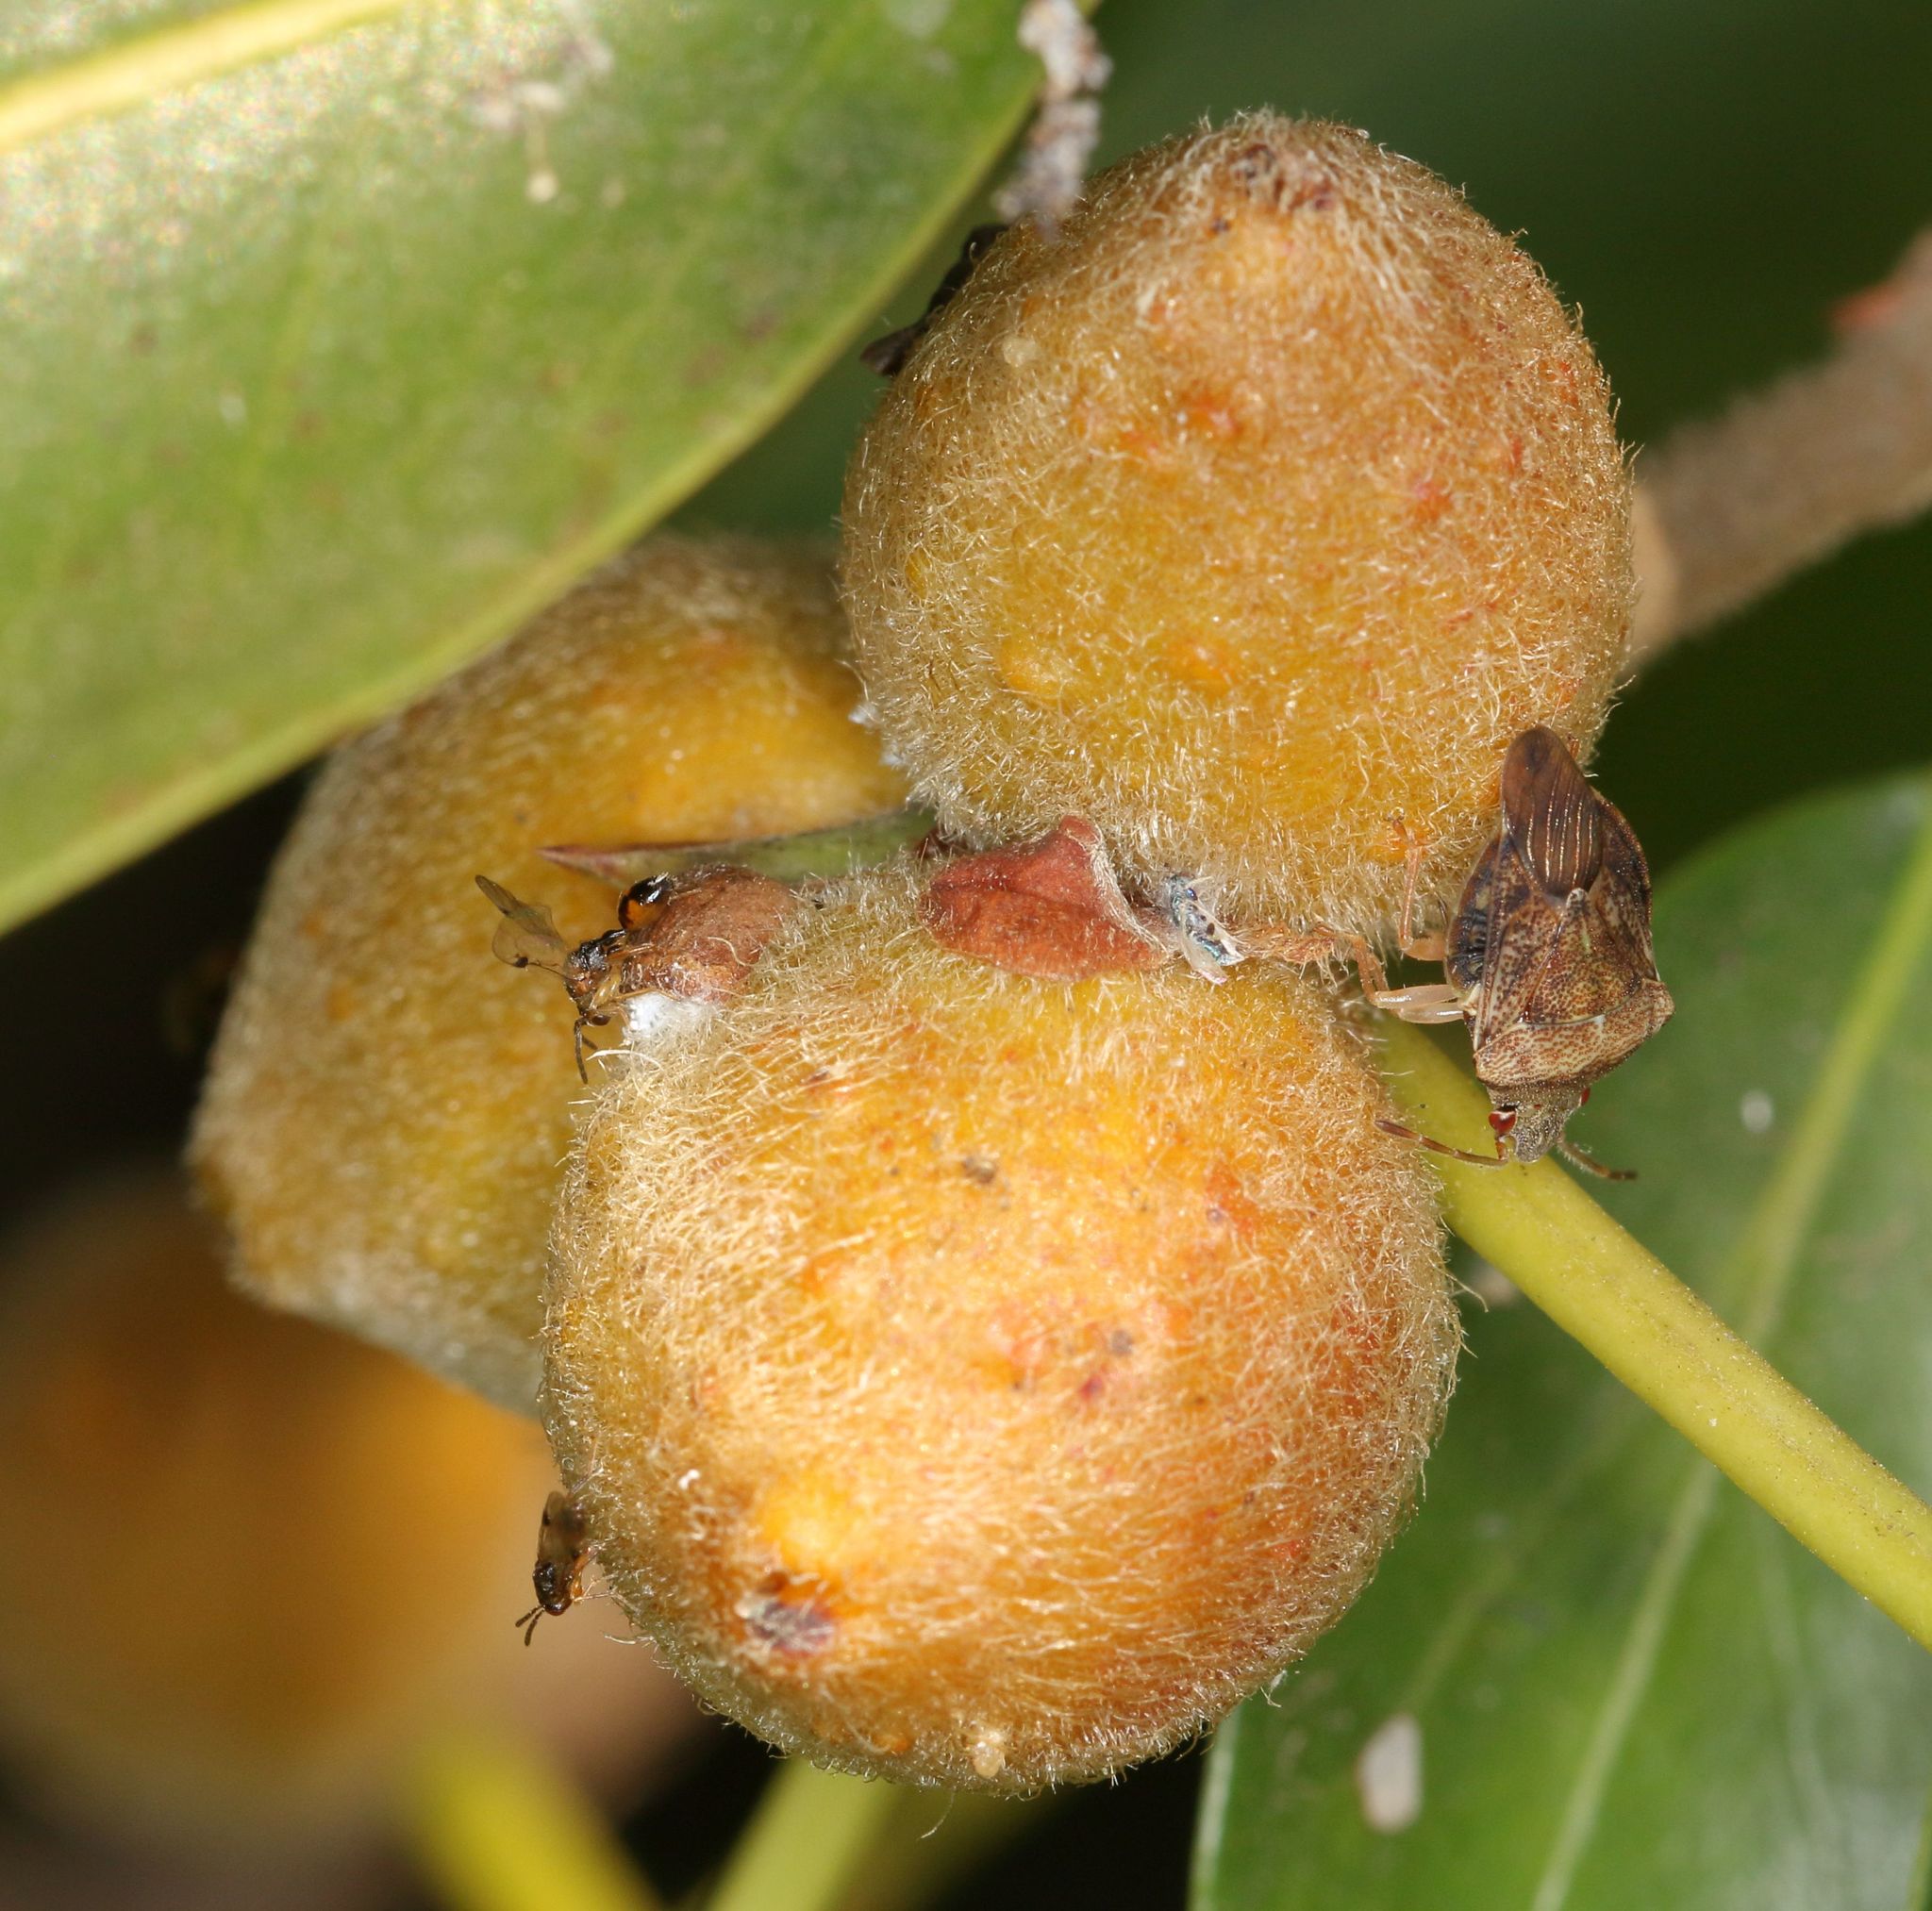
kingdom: Animalia
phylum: Arthropoda
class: Insecta
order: Hemiptera
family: Acanthosomatidae
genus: Uhlunga
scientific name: Uhlunga typica
